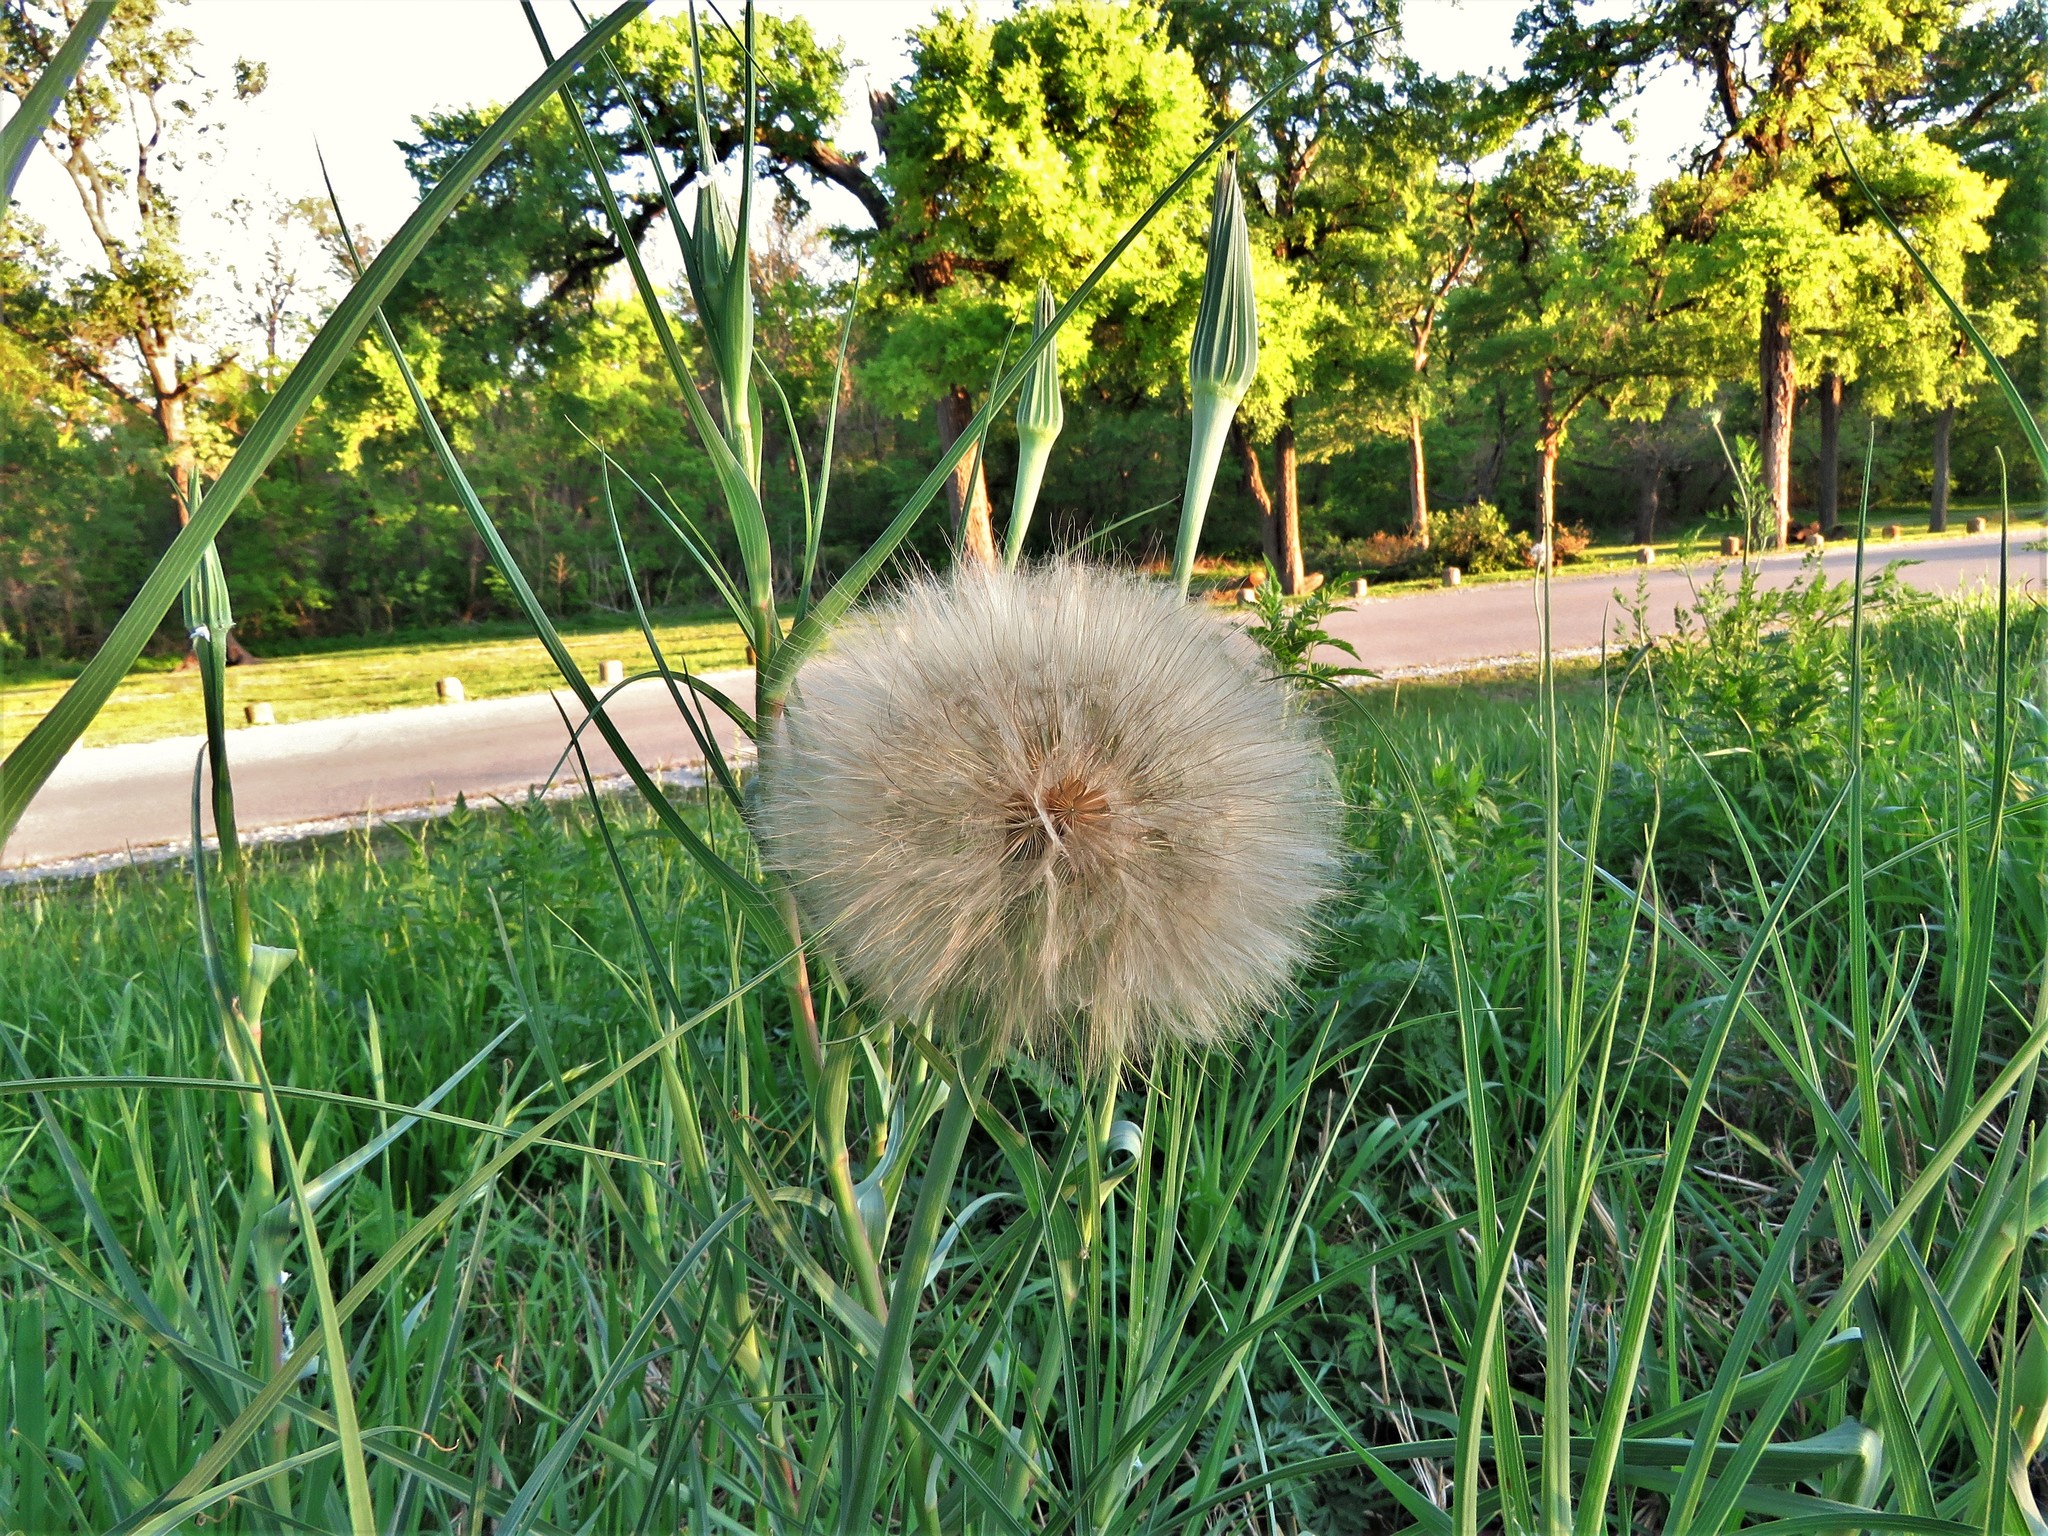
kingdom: Plantae
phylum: Tracheophyta
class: Magnoliopsida
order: Asterales
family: Asteraceae
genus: Tragopogon
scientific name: Tragopogon dubius
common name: Yellow salsify
